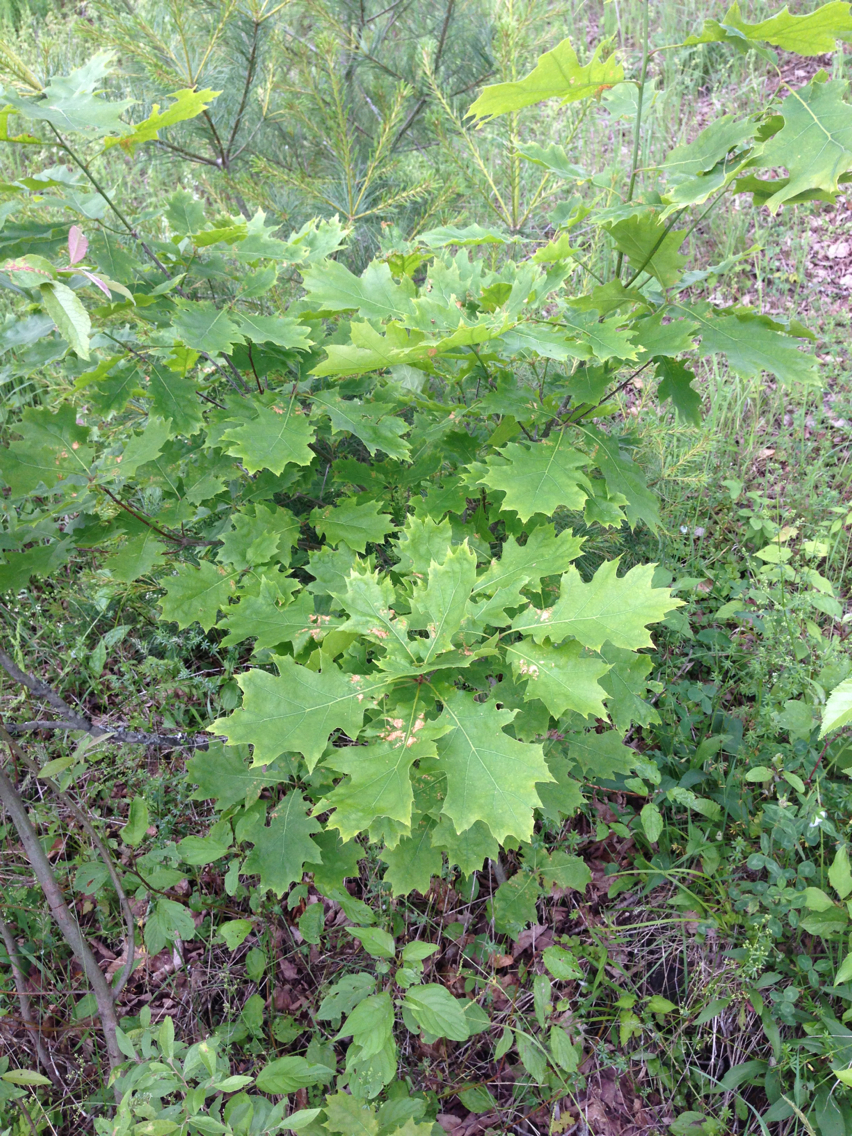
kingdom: Plantae
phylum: Tracheophyta
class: Magnoliopsida
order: Fagales
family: Fagaceae
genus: Quercus
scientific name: Quercus rubra
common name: Red oak
